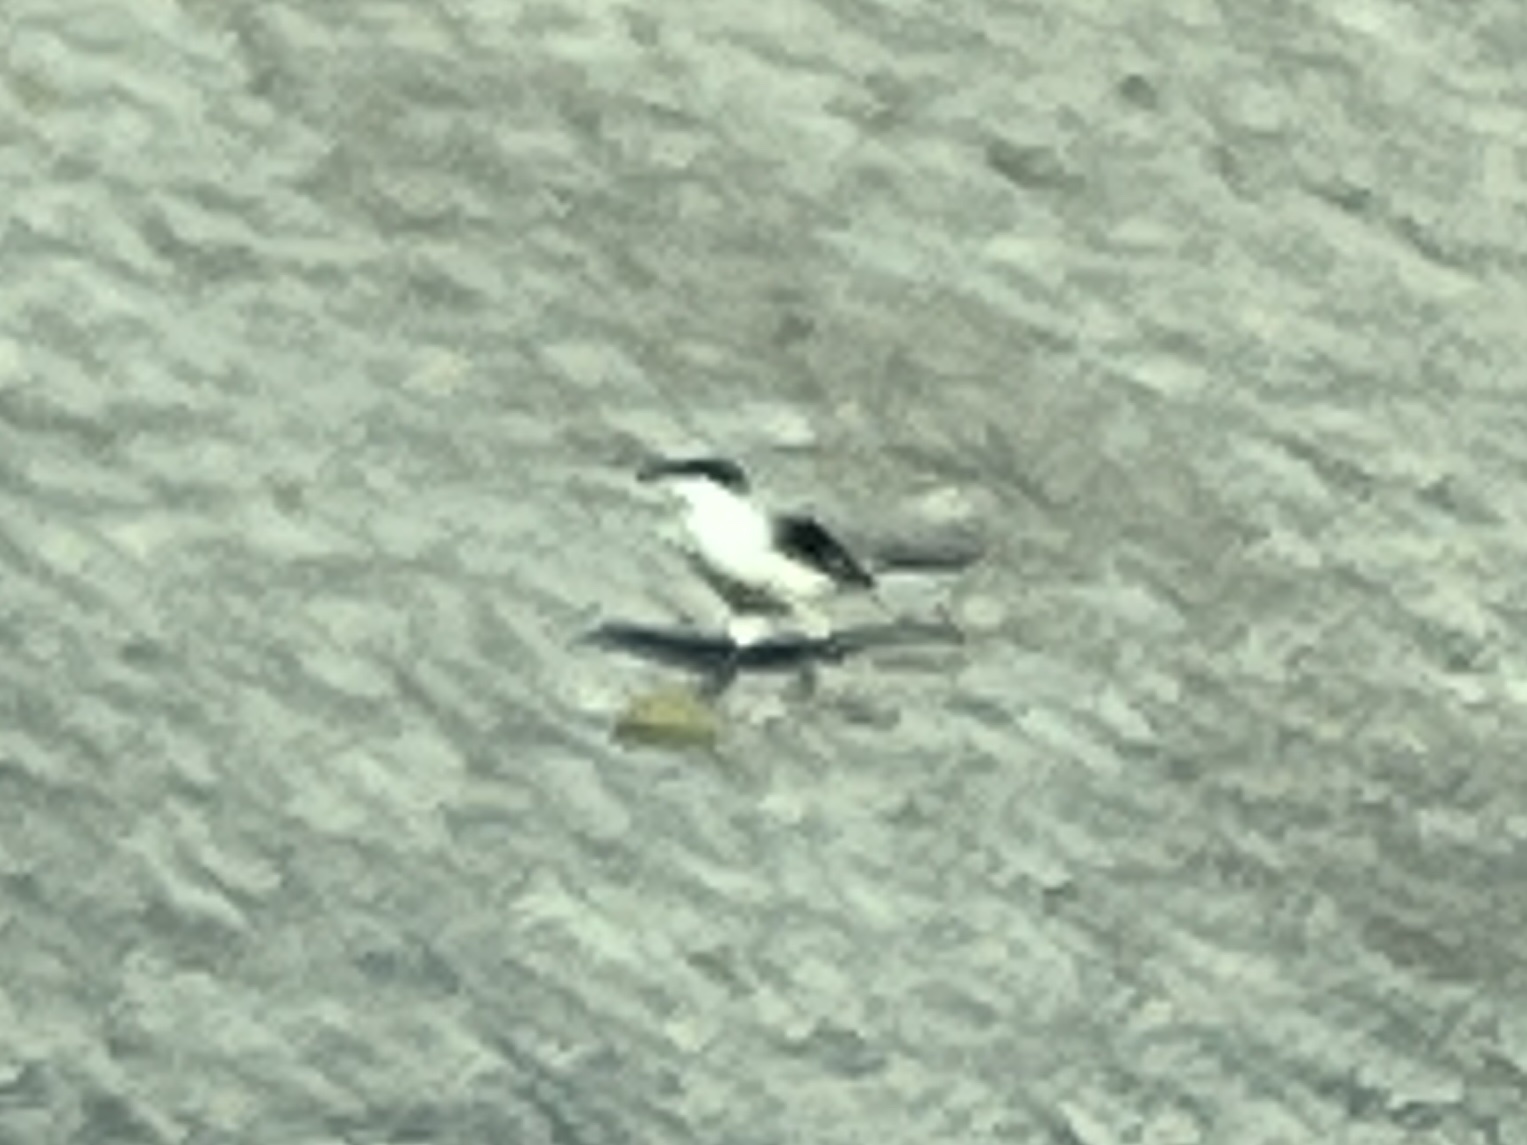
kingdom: Animalia
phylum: Chordata
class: Aves
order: Passeriformes
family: Laniidae
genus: Lanius
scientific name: Lanius ludovicianus
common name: Loggerhead shrike
